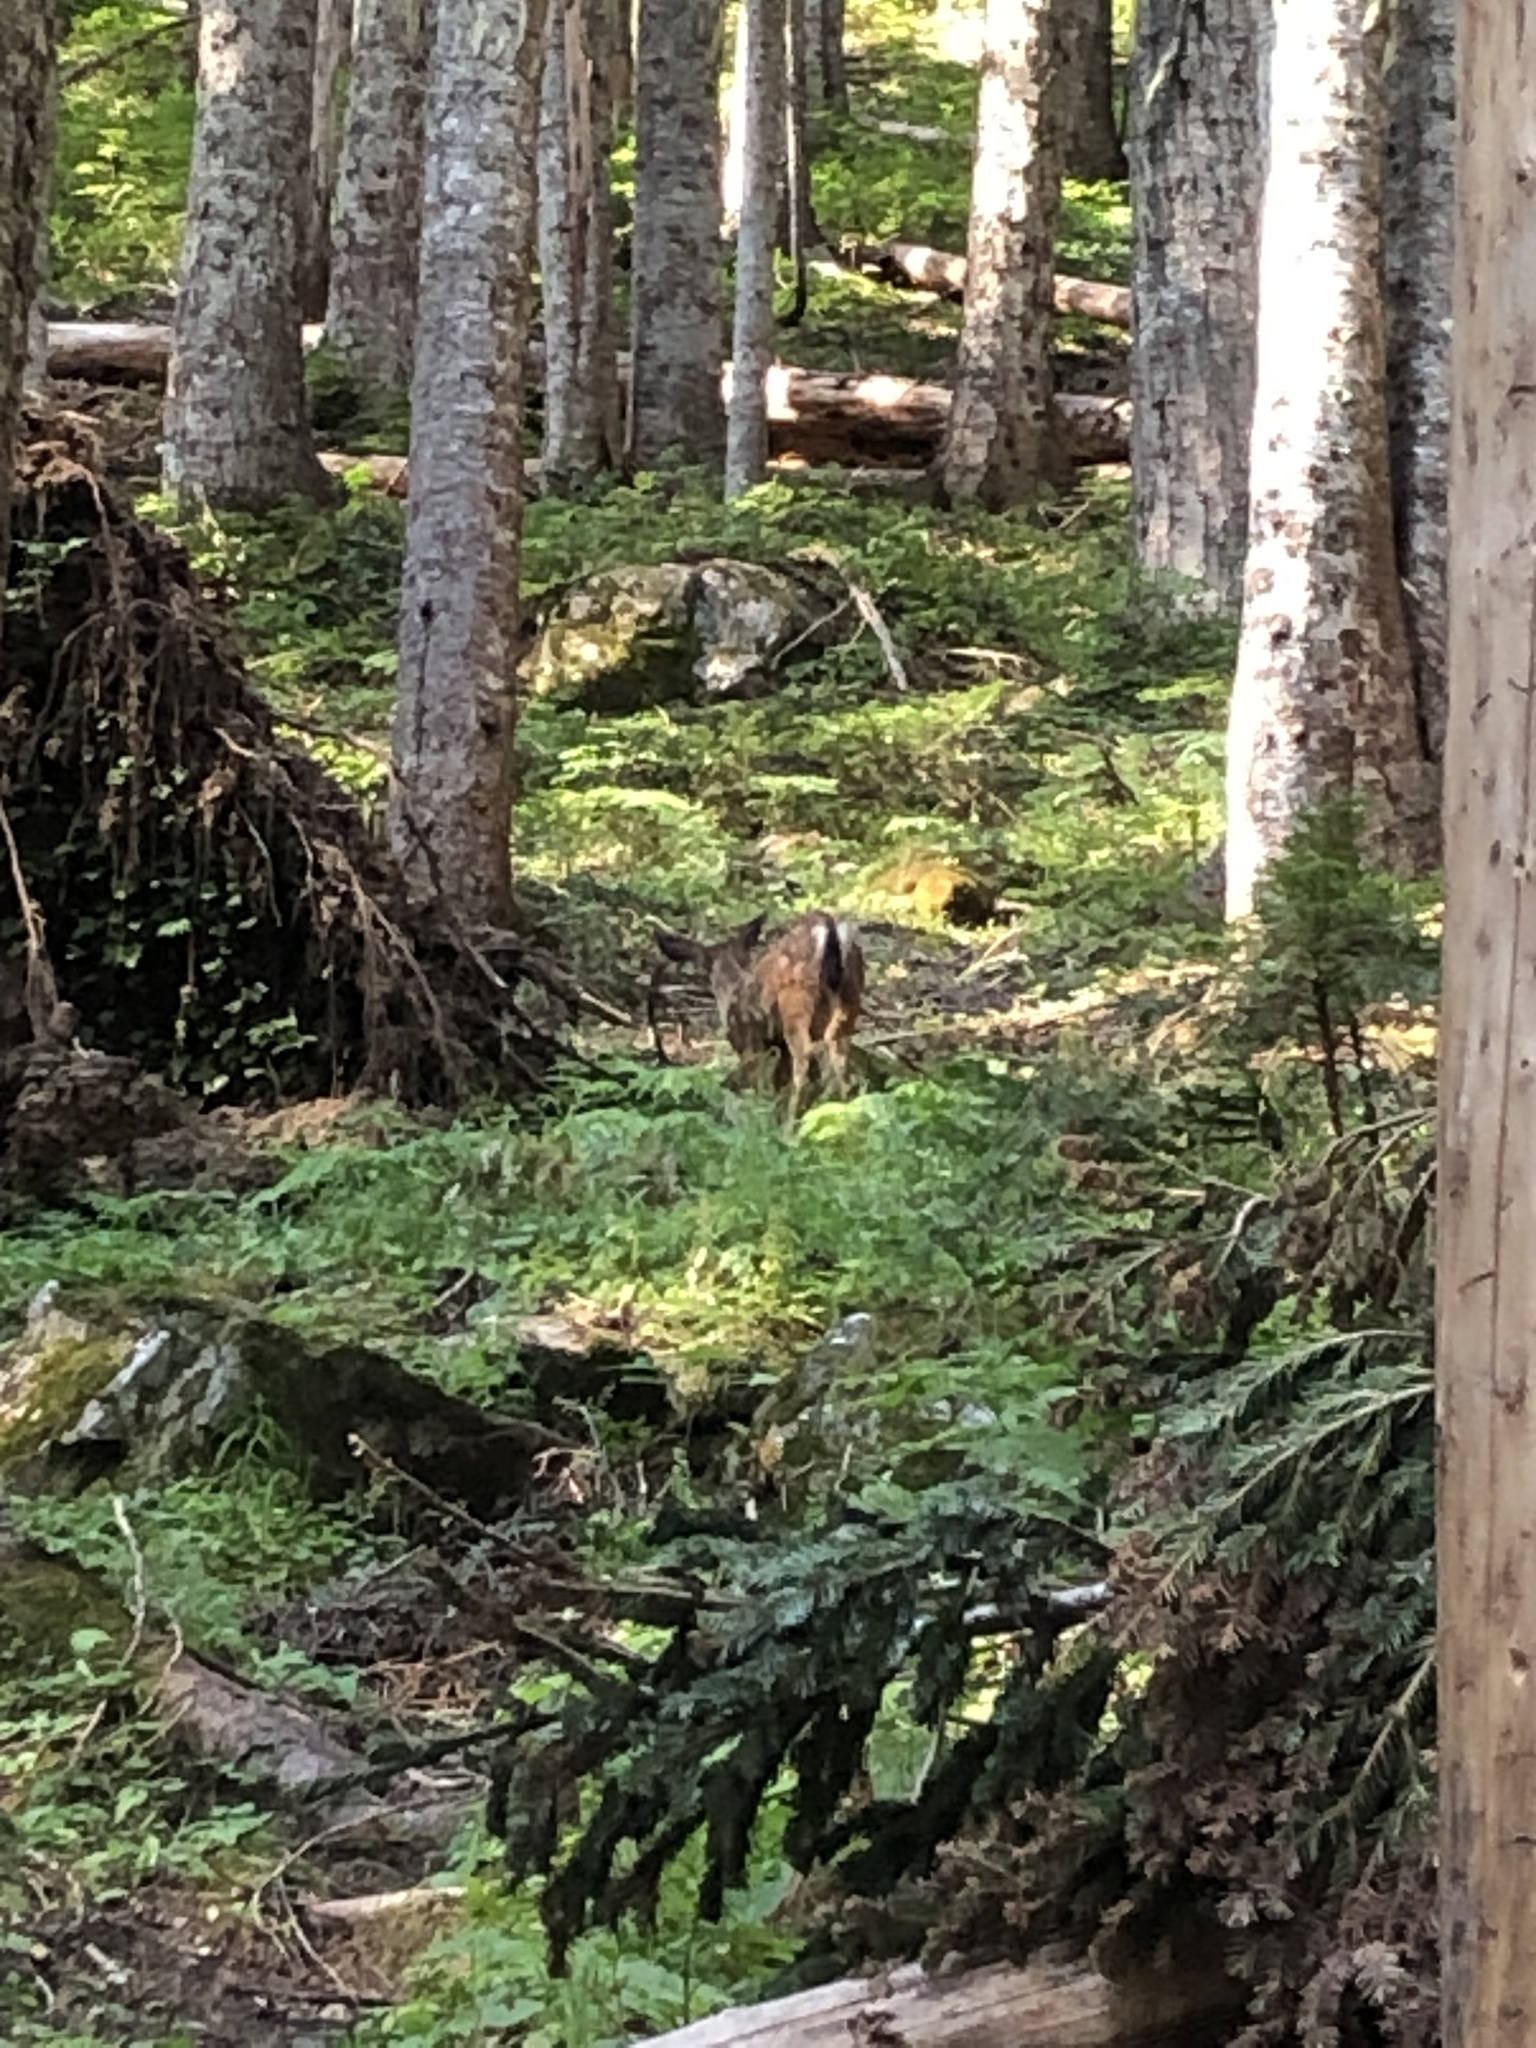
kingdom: Animalia
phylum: Chordata
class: Mammalia
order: Artiodactyla
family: Cervidae
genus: Odocoileus
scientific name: Odocoileus hemionus
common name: Mule deer
